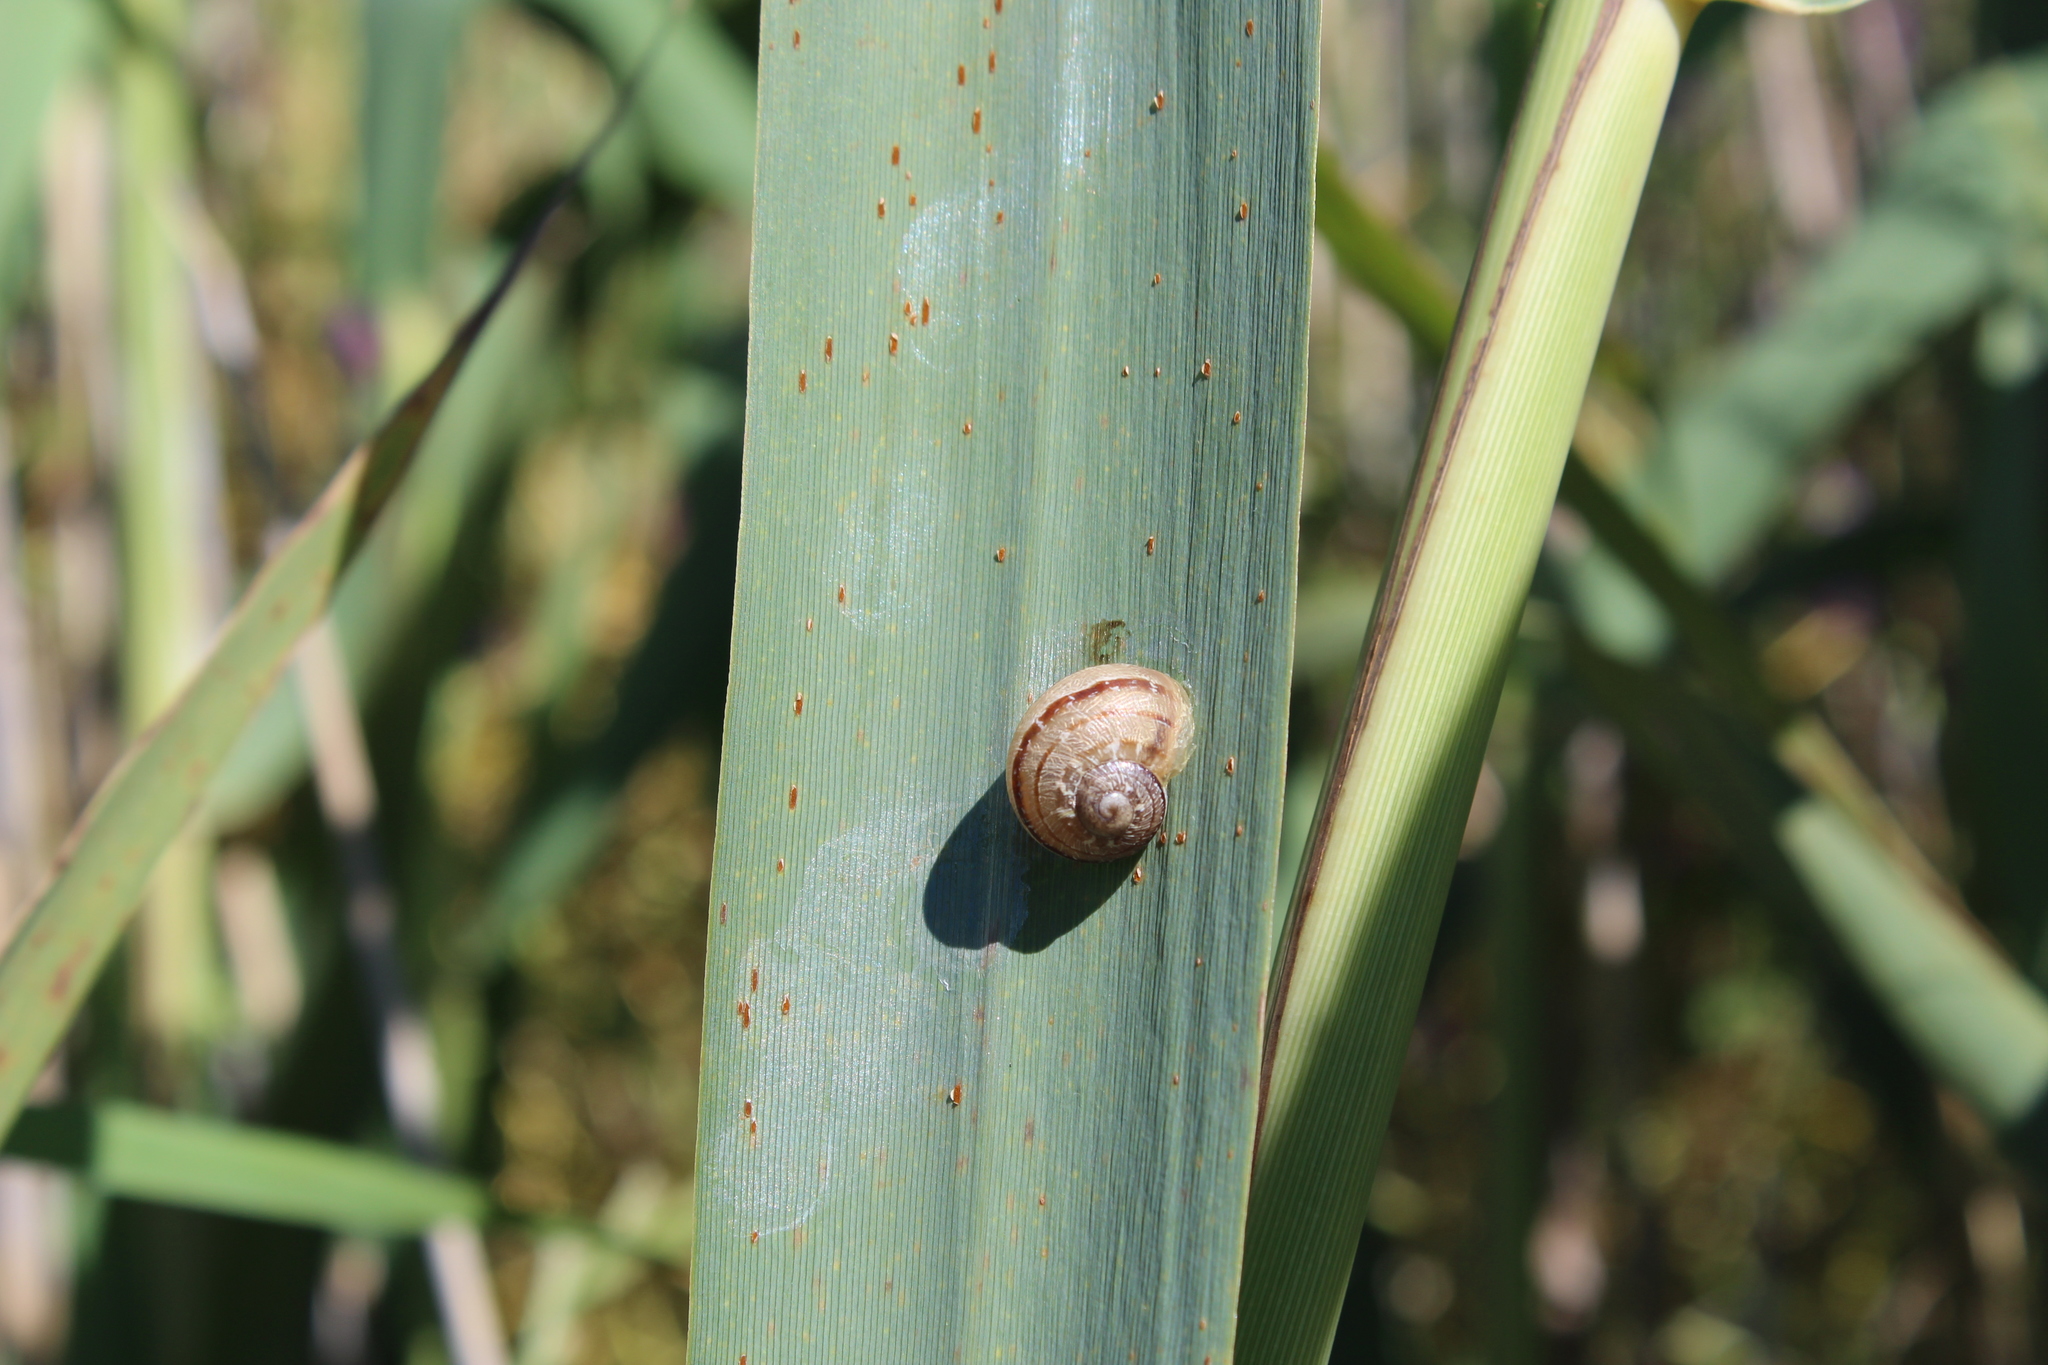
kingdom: Animalia
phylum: Mollusca
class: Gastropoda
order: Stylommatophora
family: Helicidae
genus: Cornu
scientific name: Cornu aspersum
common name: Brown garden snail
